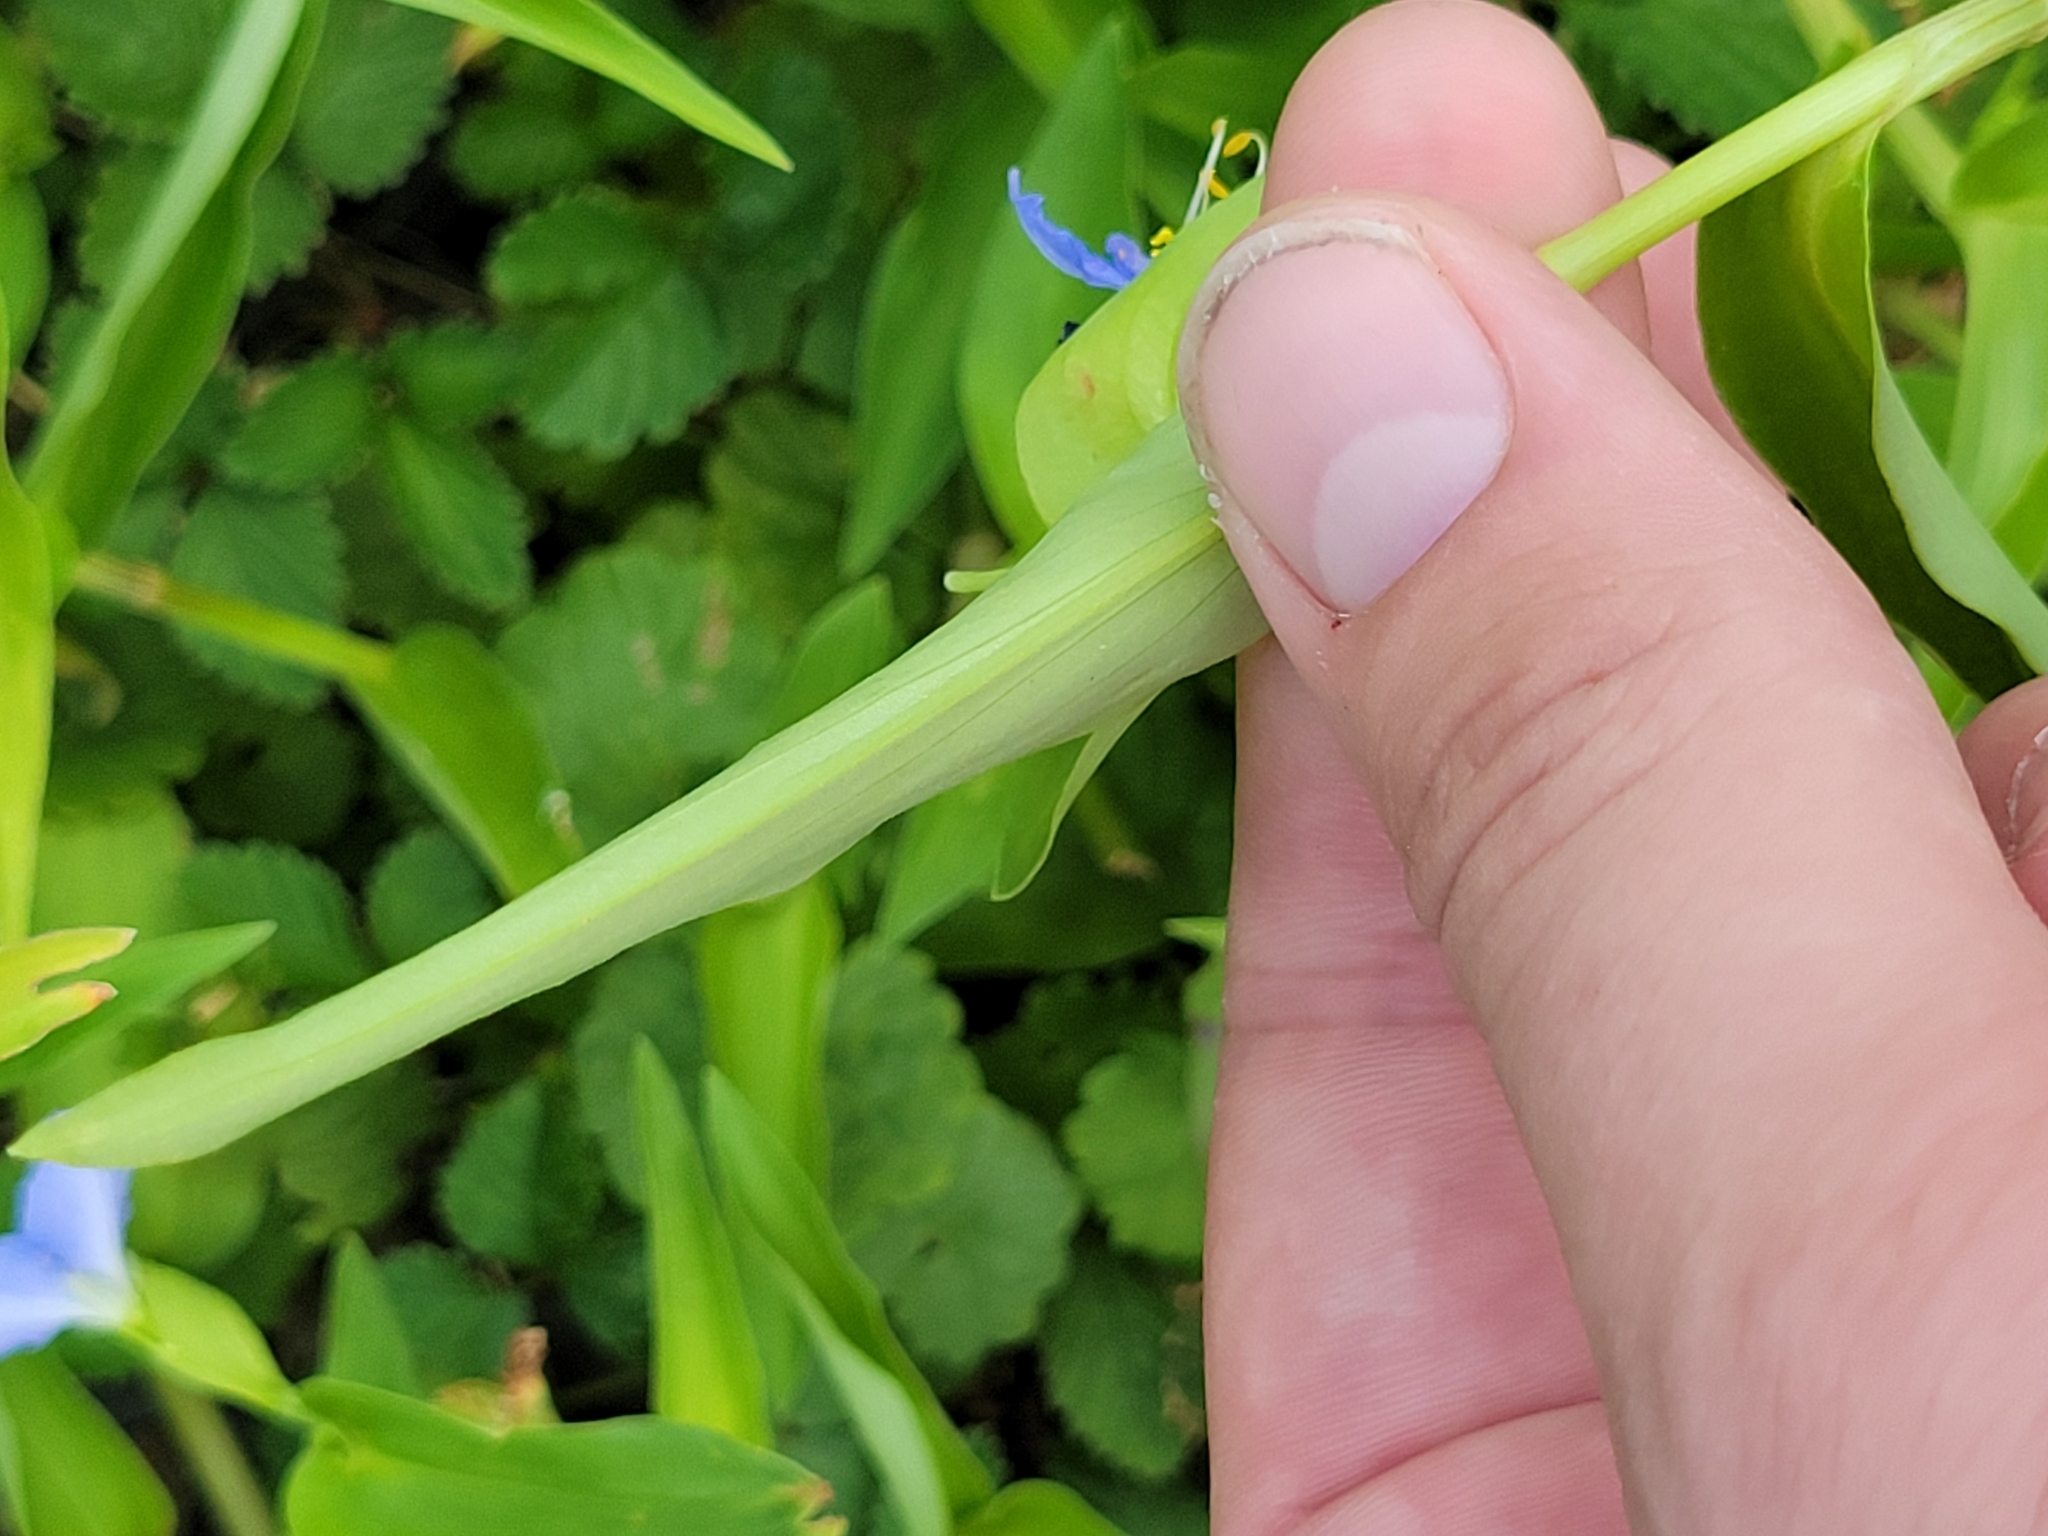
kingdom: Plantae
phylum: Tracheophyta
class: Liliopsida
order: Commelinales
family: Commelinaceae
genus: Commelina
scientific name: Commelina communis
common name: Asiatic dayflower
